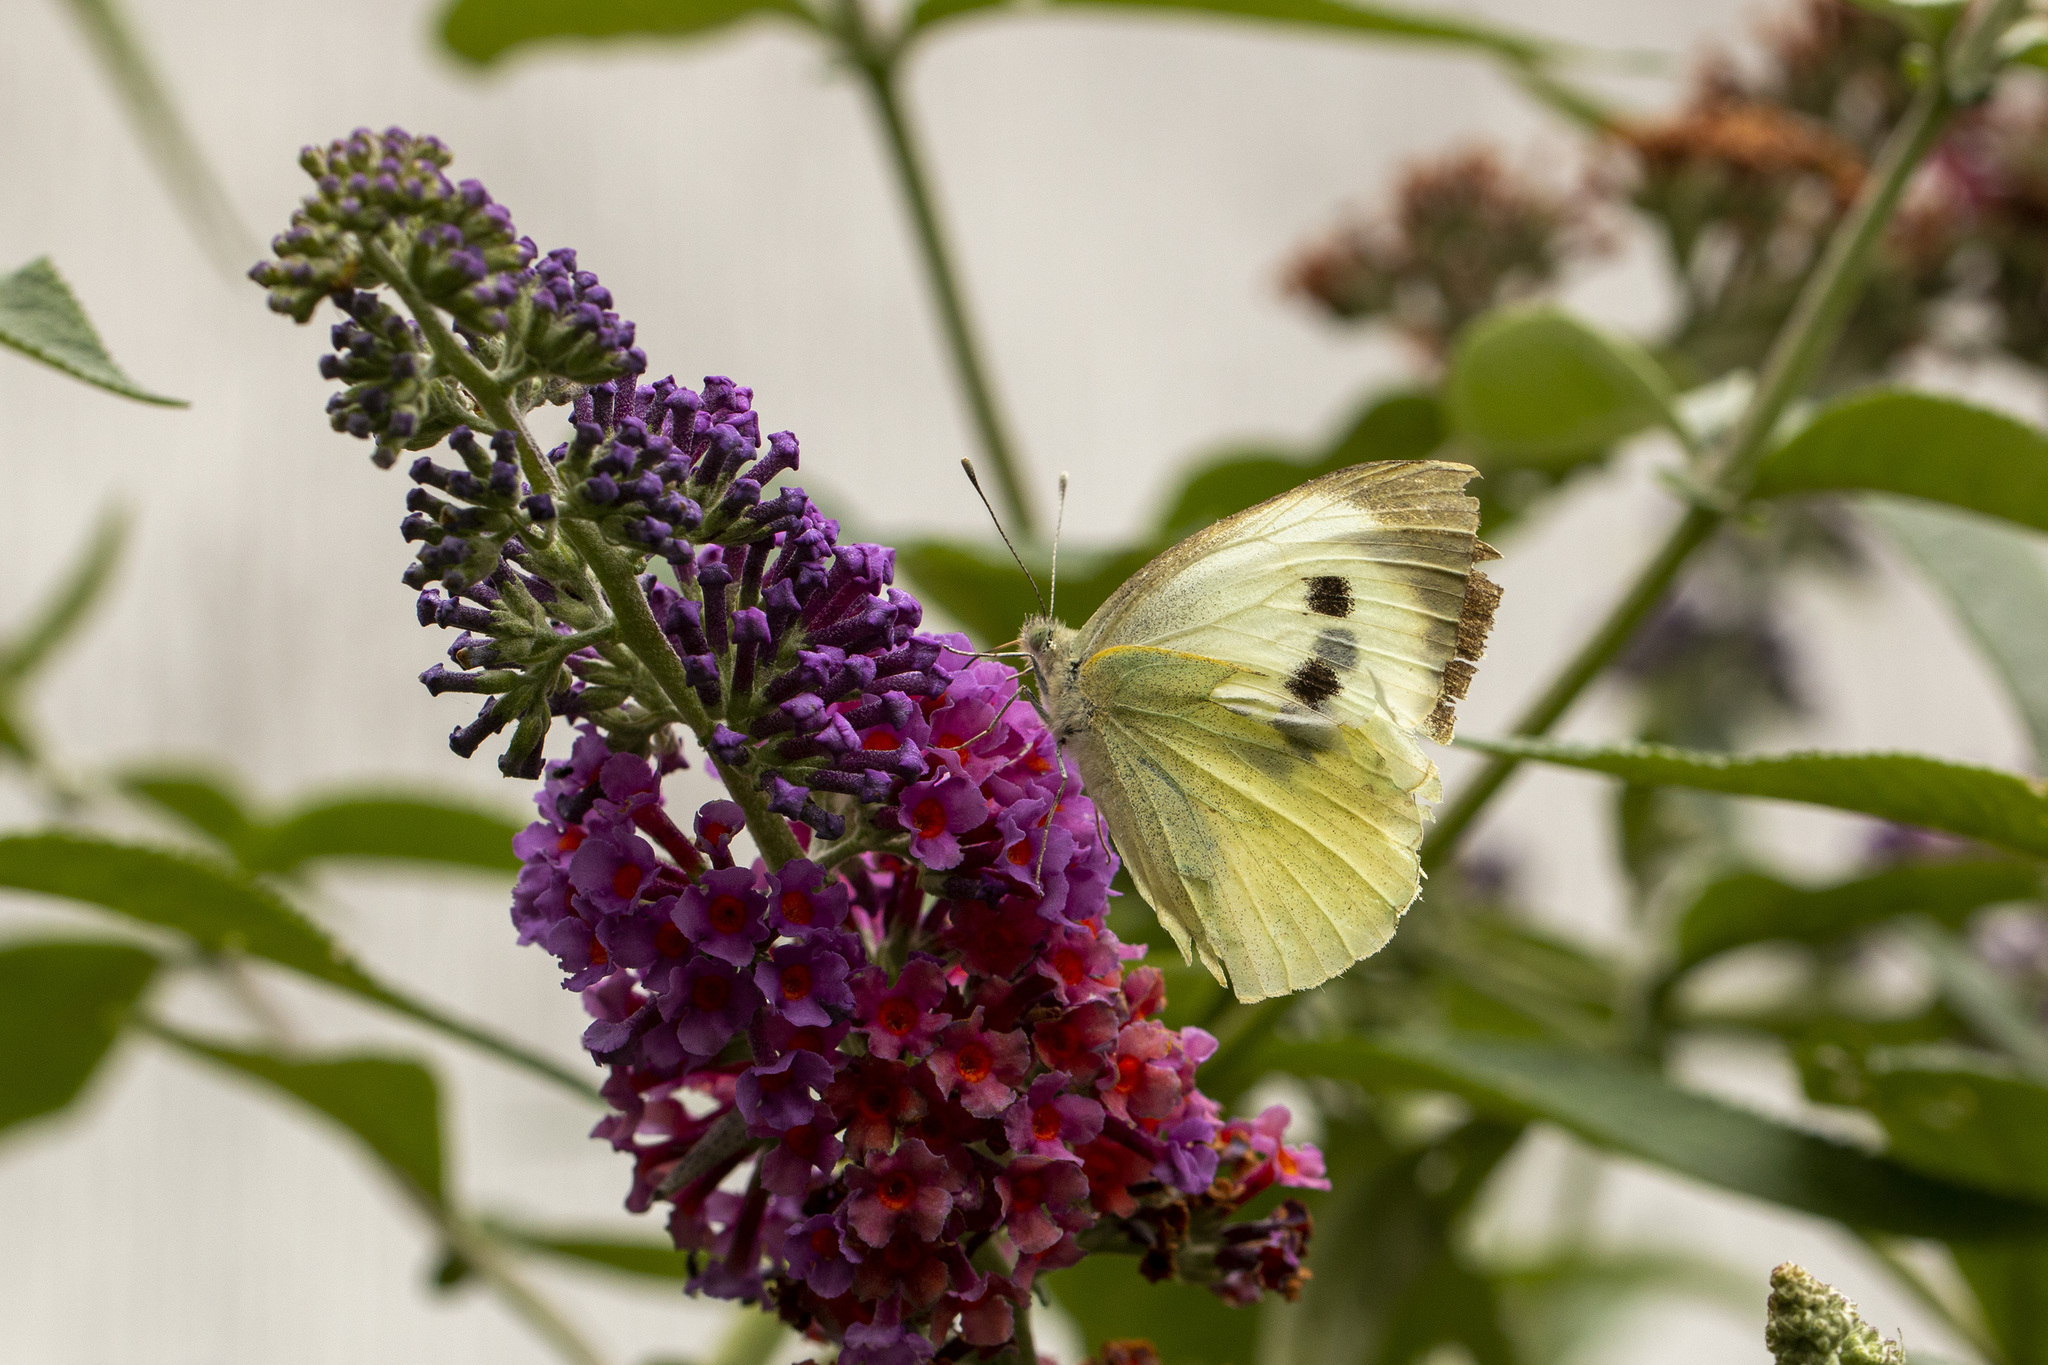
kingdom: Animalia
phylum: Arthropoda
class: Insecta
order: Lepidoptera
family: Pieridae
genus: Pieris
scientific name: Pieris brassicae
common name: Large white
